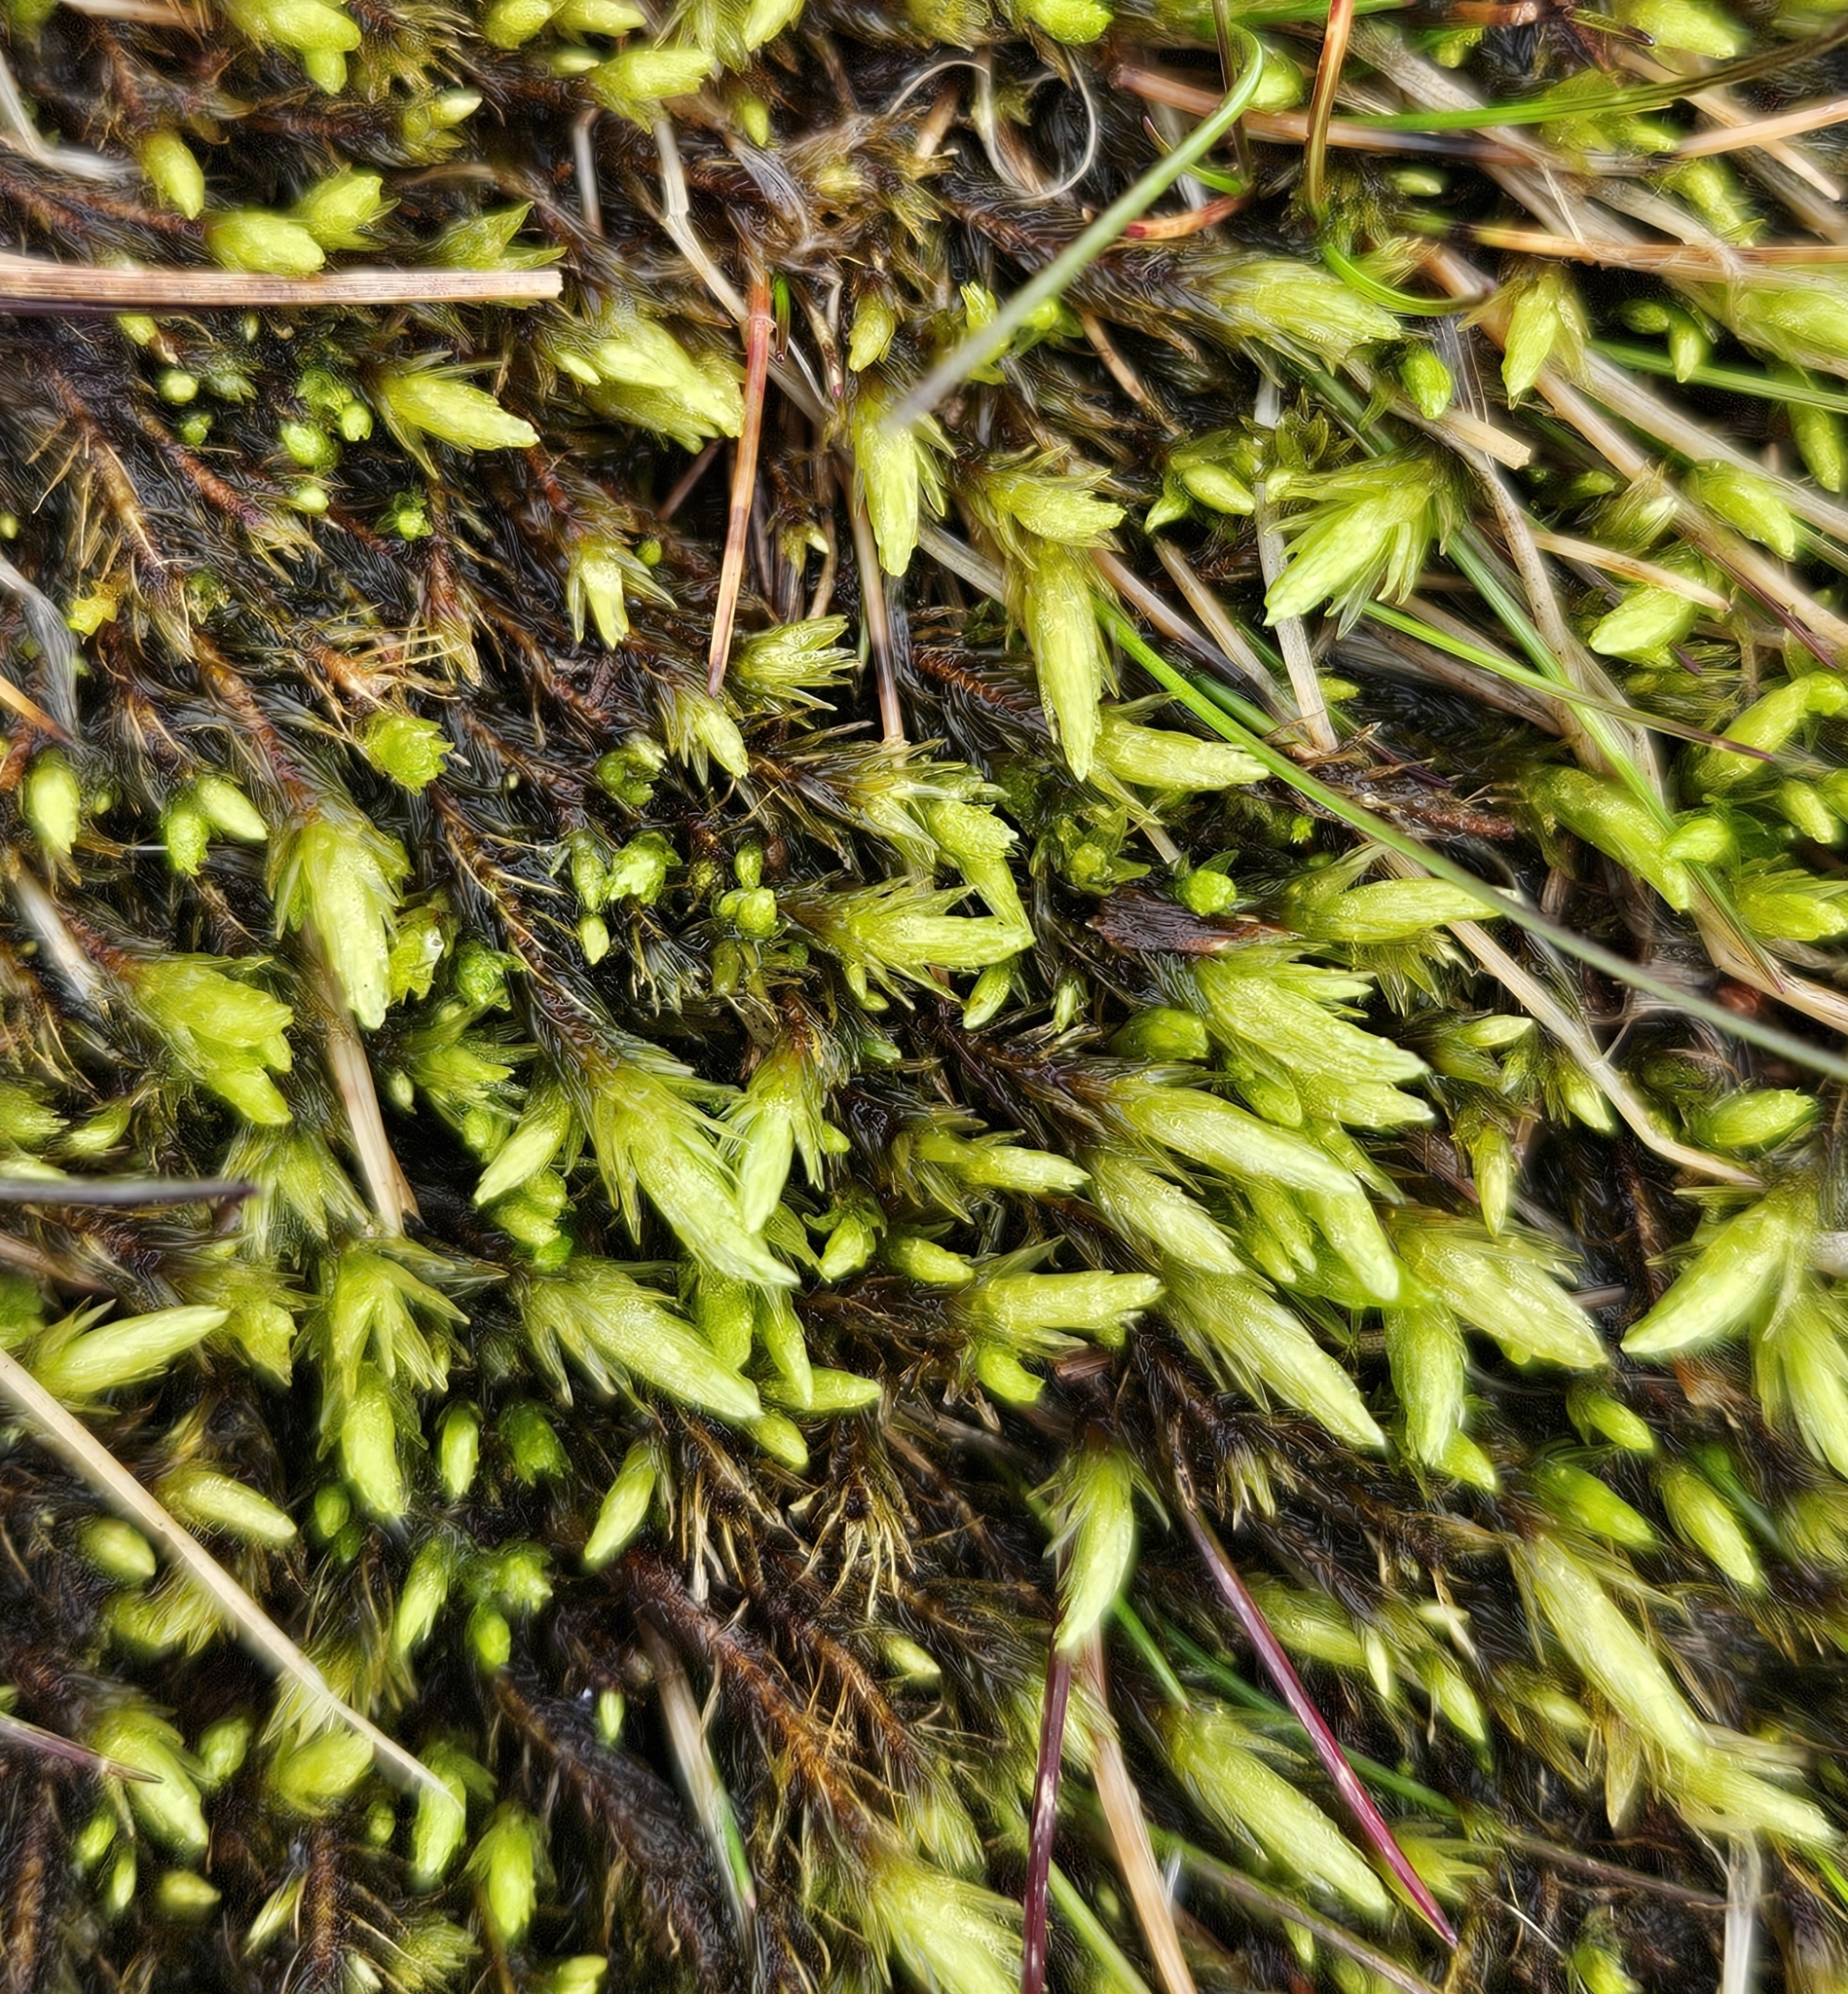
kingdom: Plantae
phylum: Bryophyta
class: Bryopsida
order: Aulacomniales
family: Aulacomniaceae
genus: Aulacomnium
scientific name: Aulacomnium palustre
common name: Bog groove-moss
